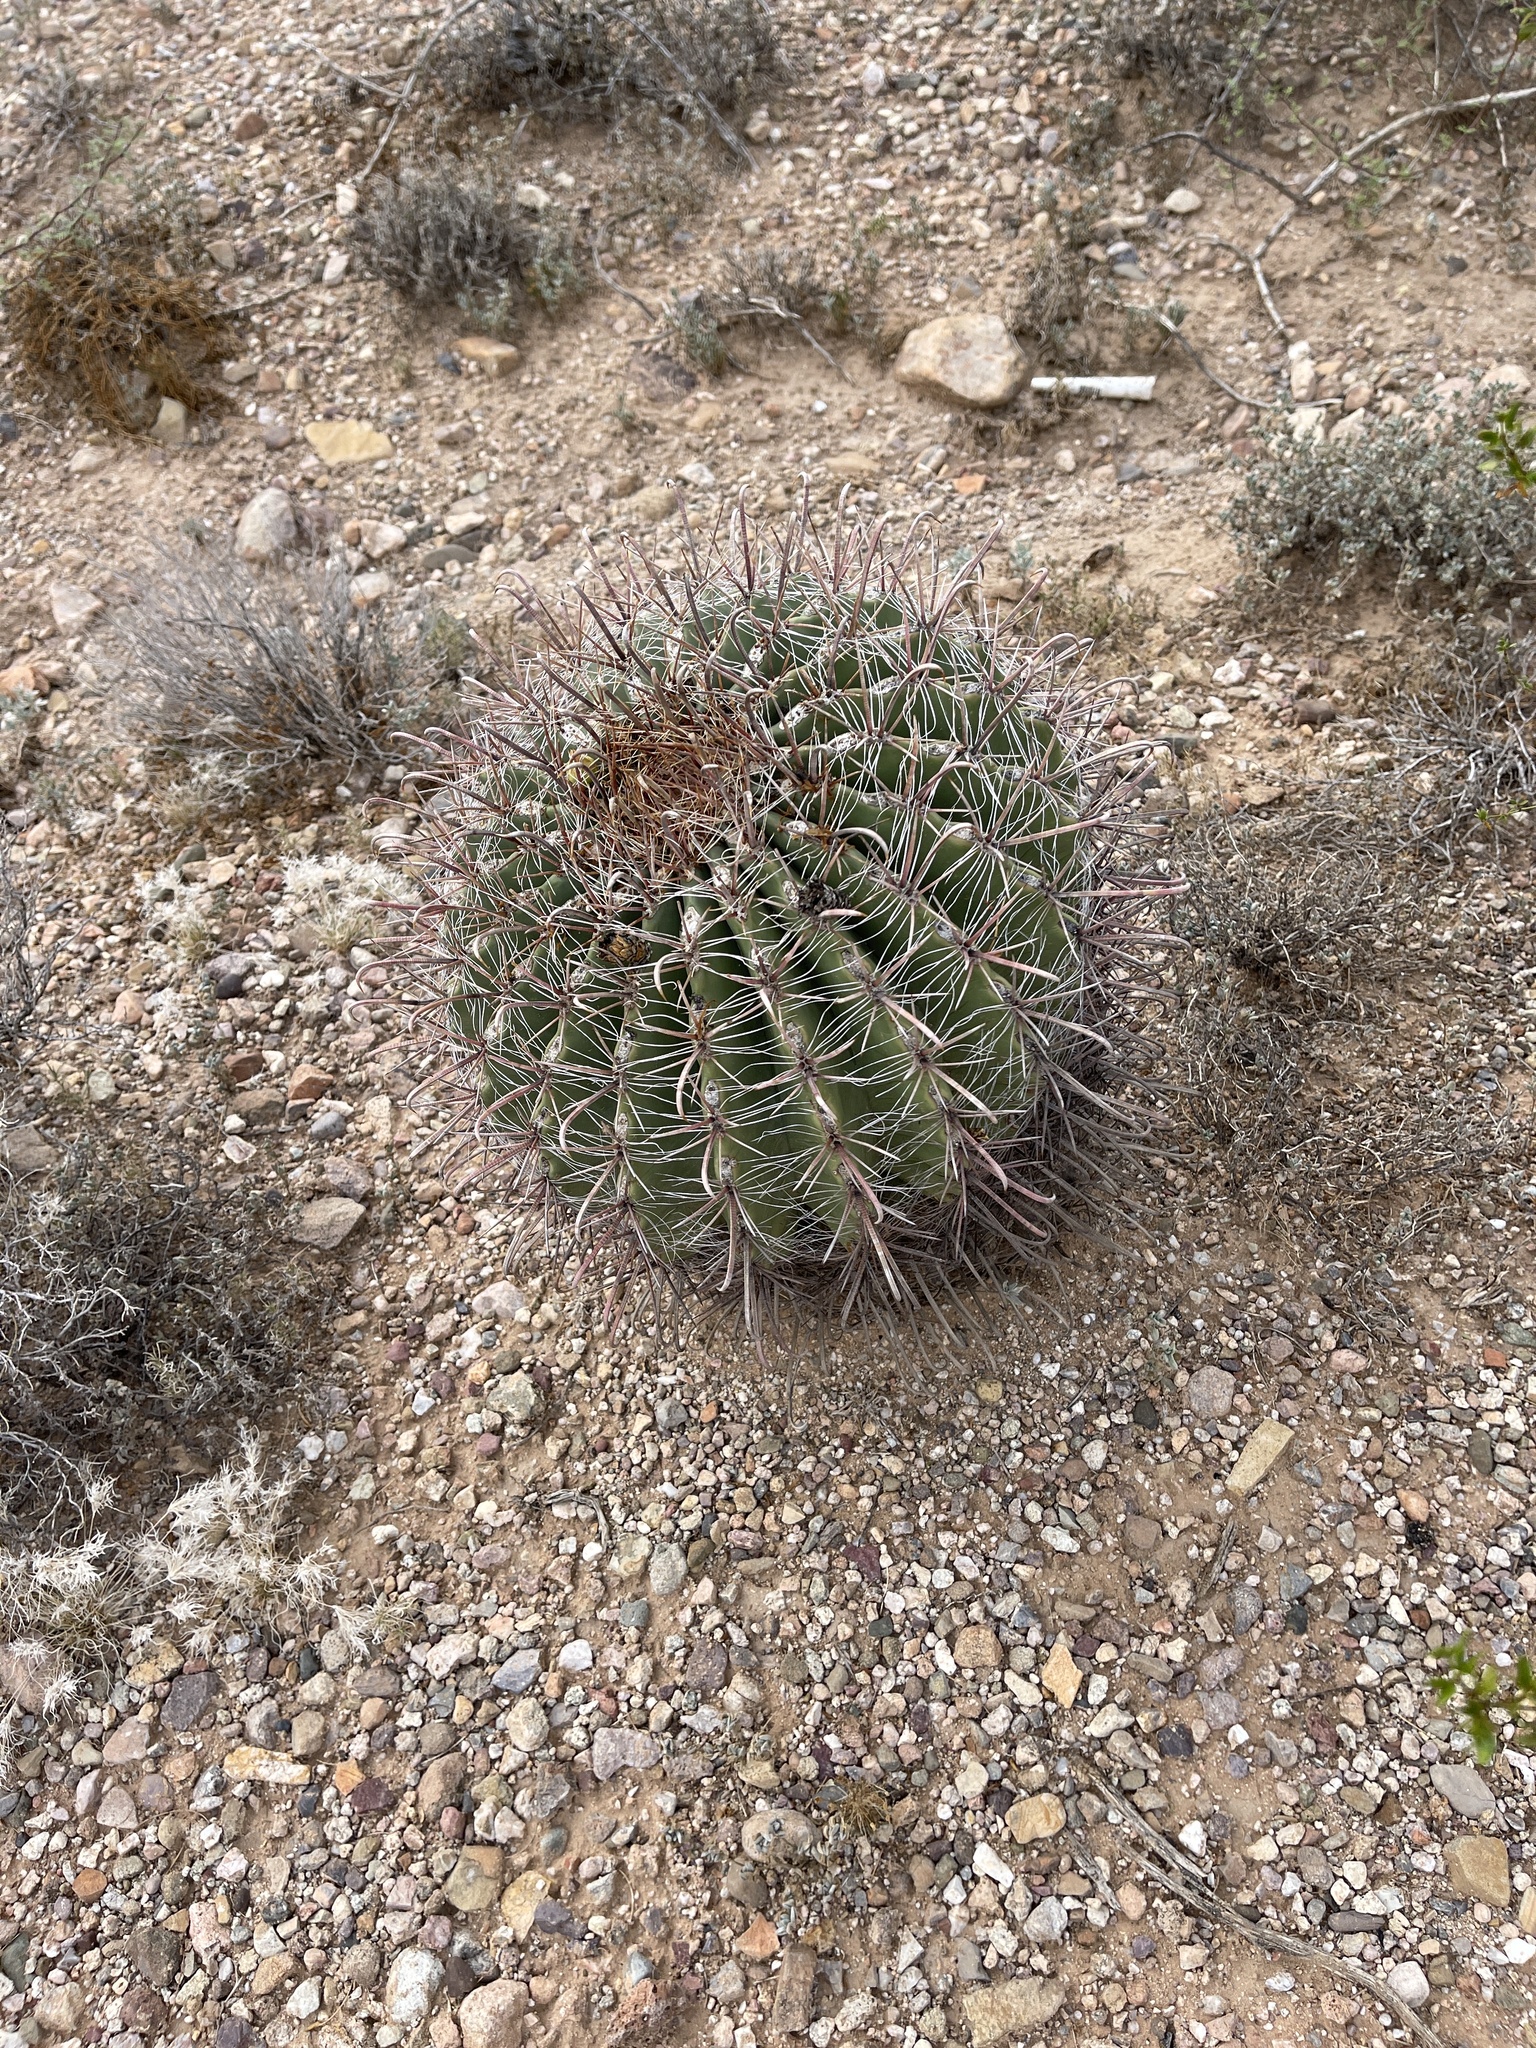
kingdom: Plantae
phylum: Tracheophyta
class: Magnoliopsida
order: Caryophyllales
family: Cactaceae
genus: Ferocactus
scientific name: Ferocactus wislizeni
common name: Candy barrel cactus
